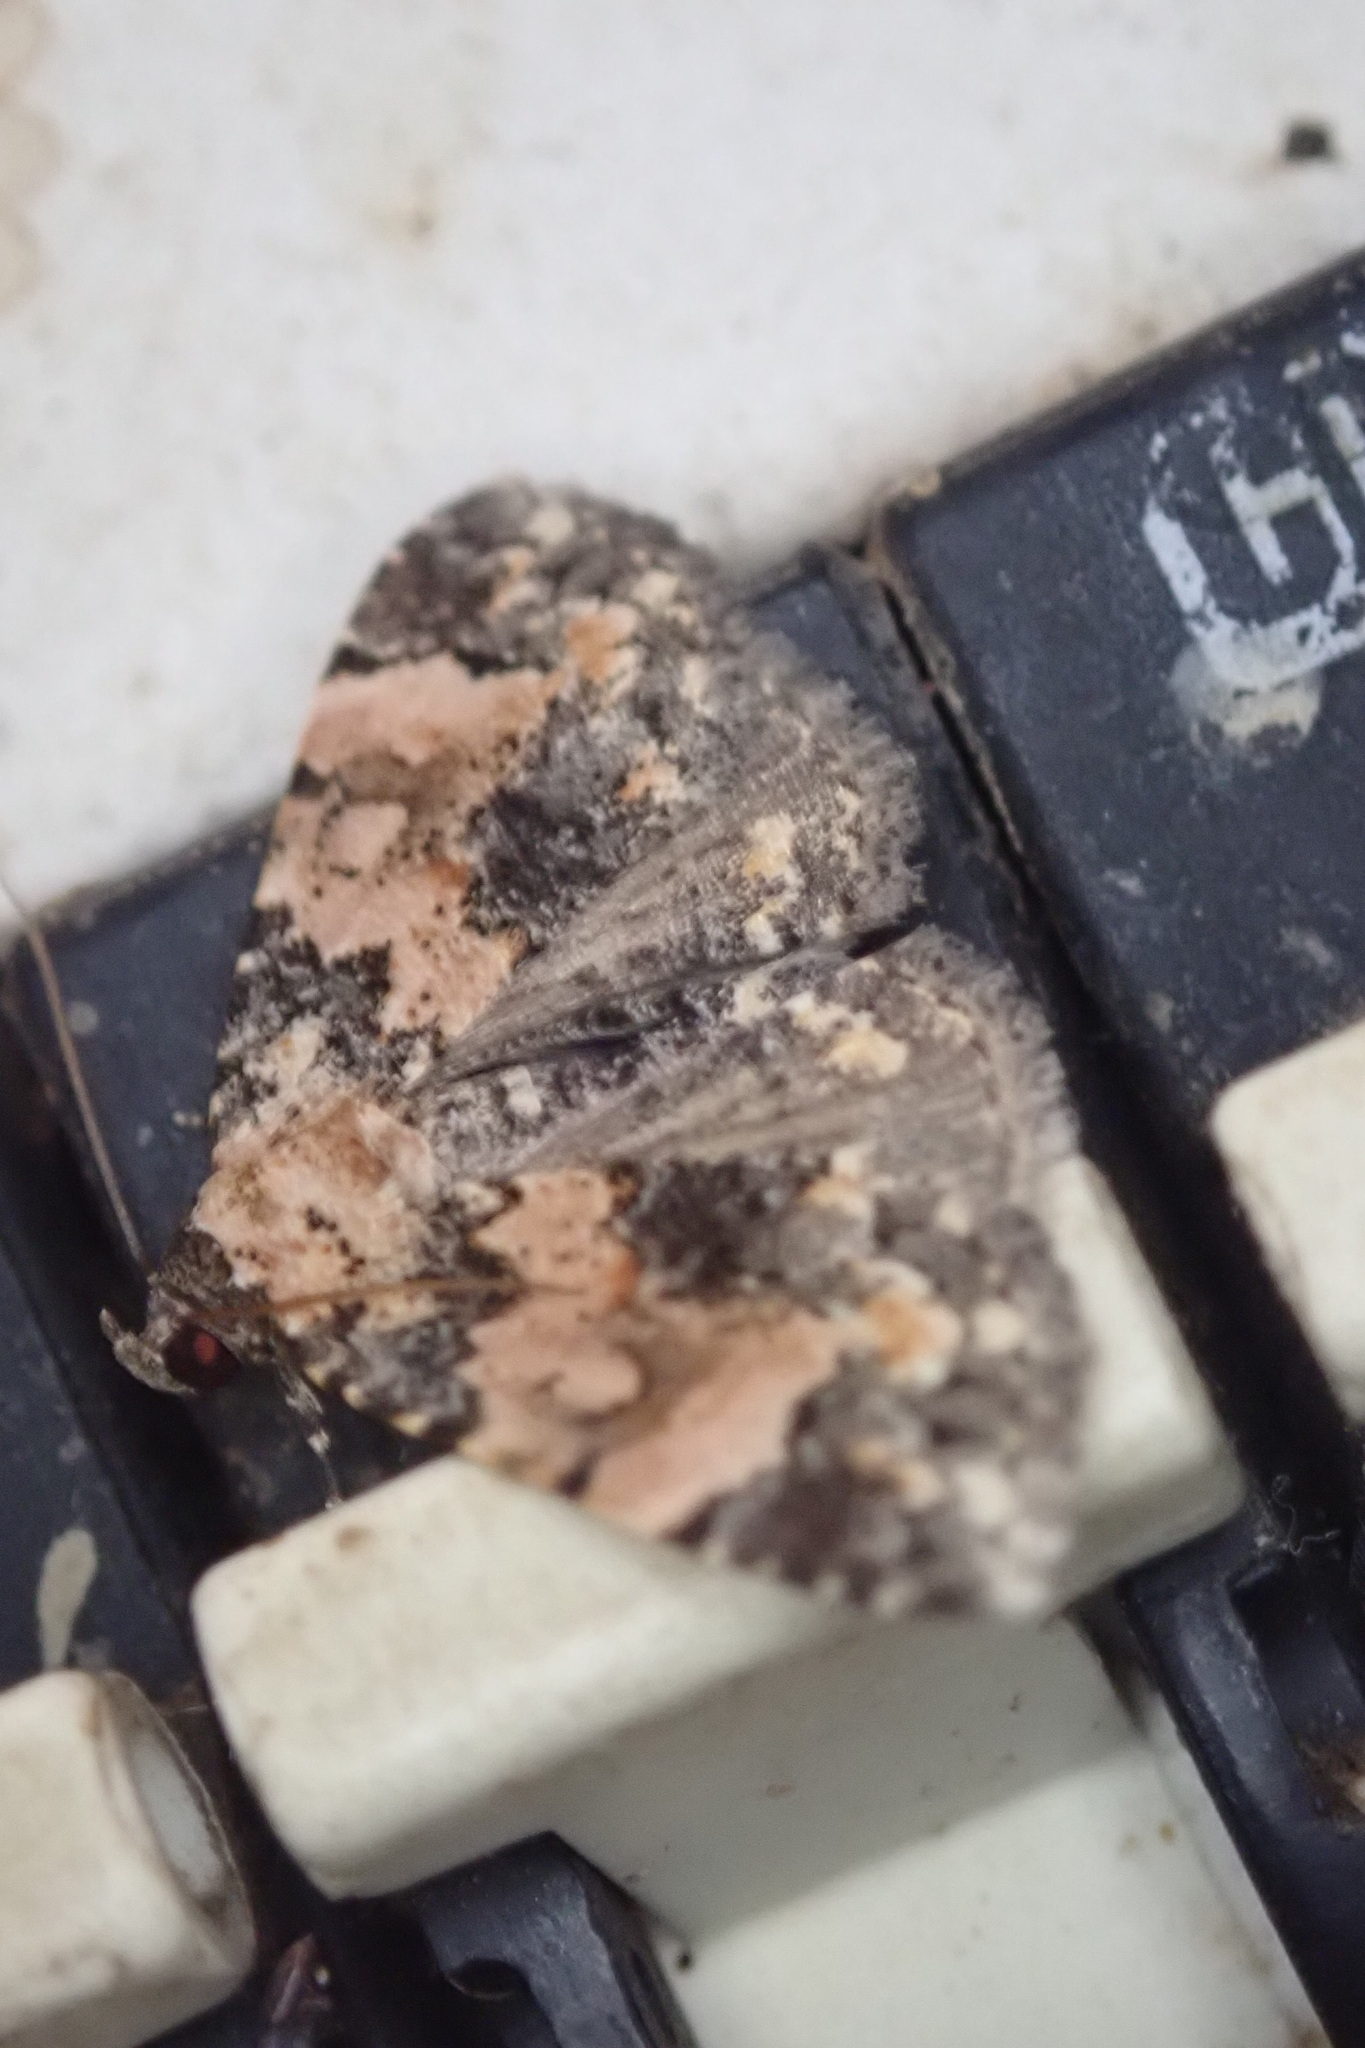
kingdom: Animalia
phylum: Arthropoda
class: Insecta
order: Lepidoptera
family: Noctuidae
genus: Eublemma
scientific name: Eublemma decora
